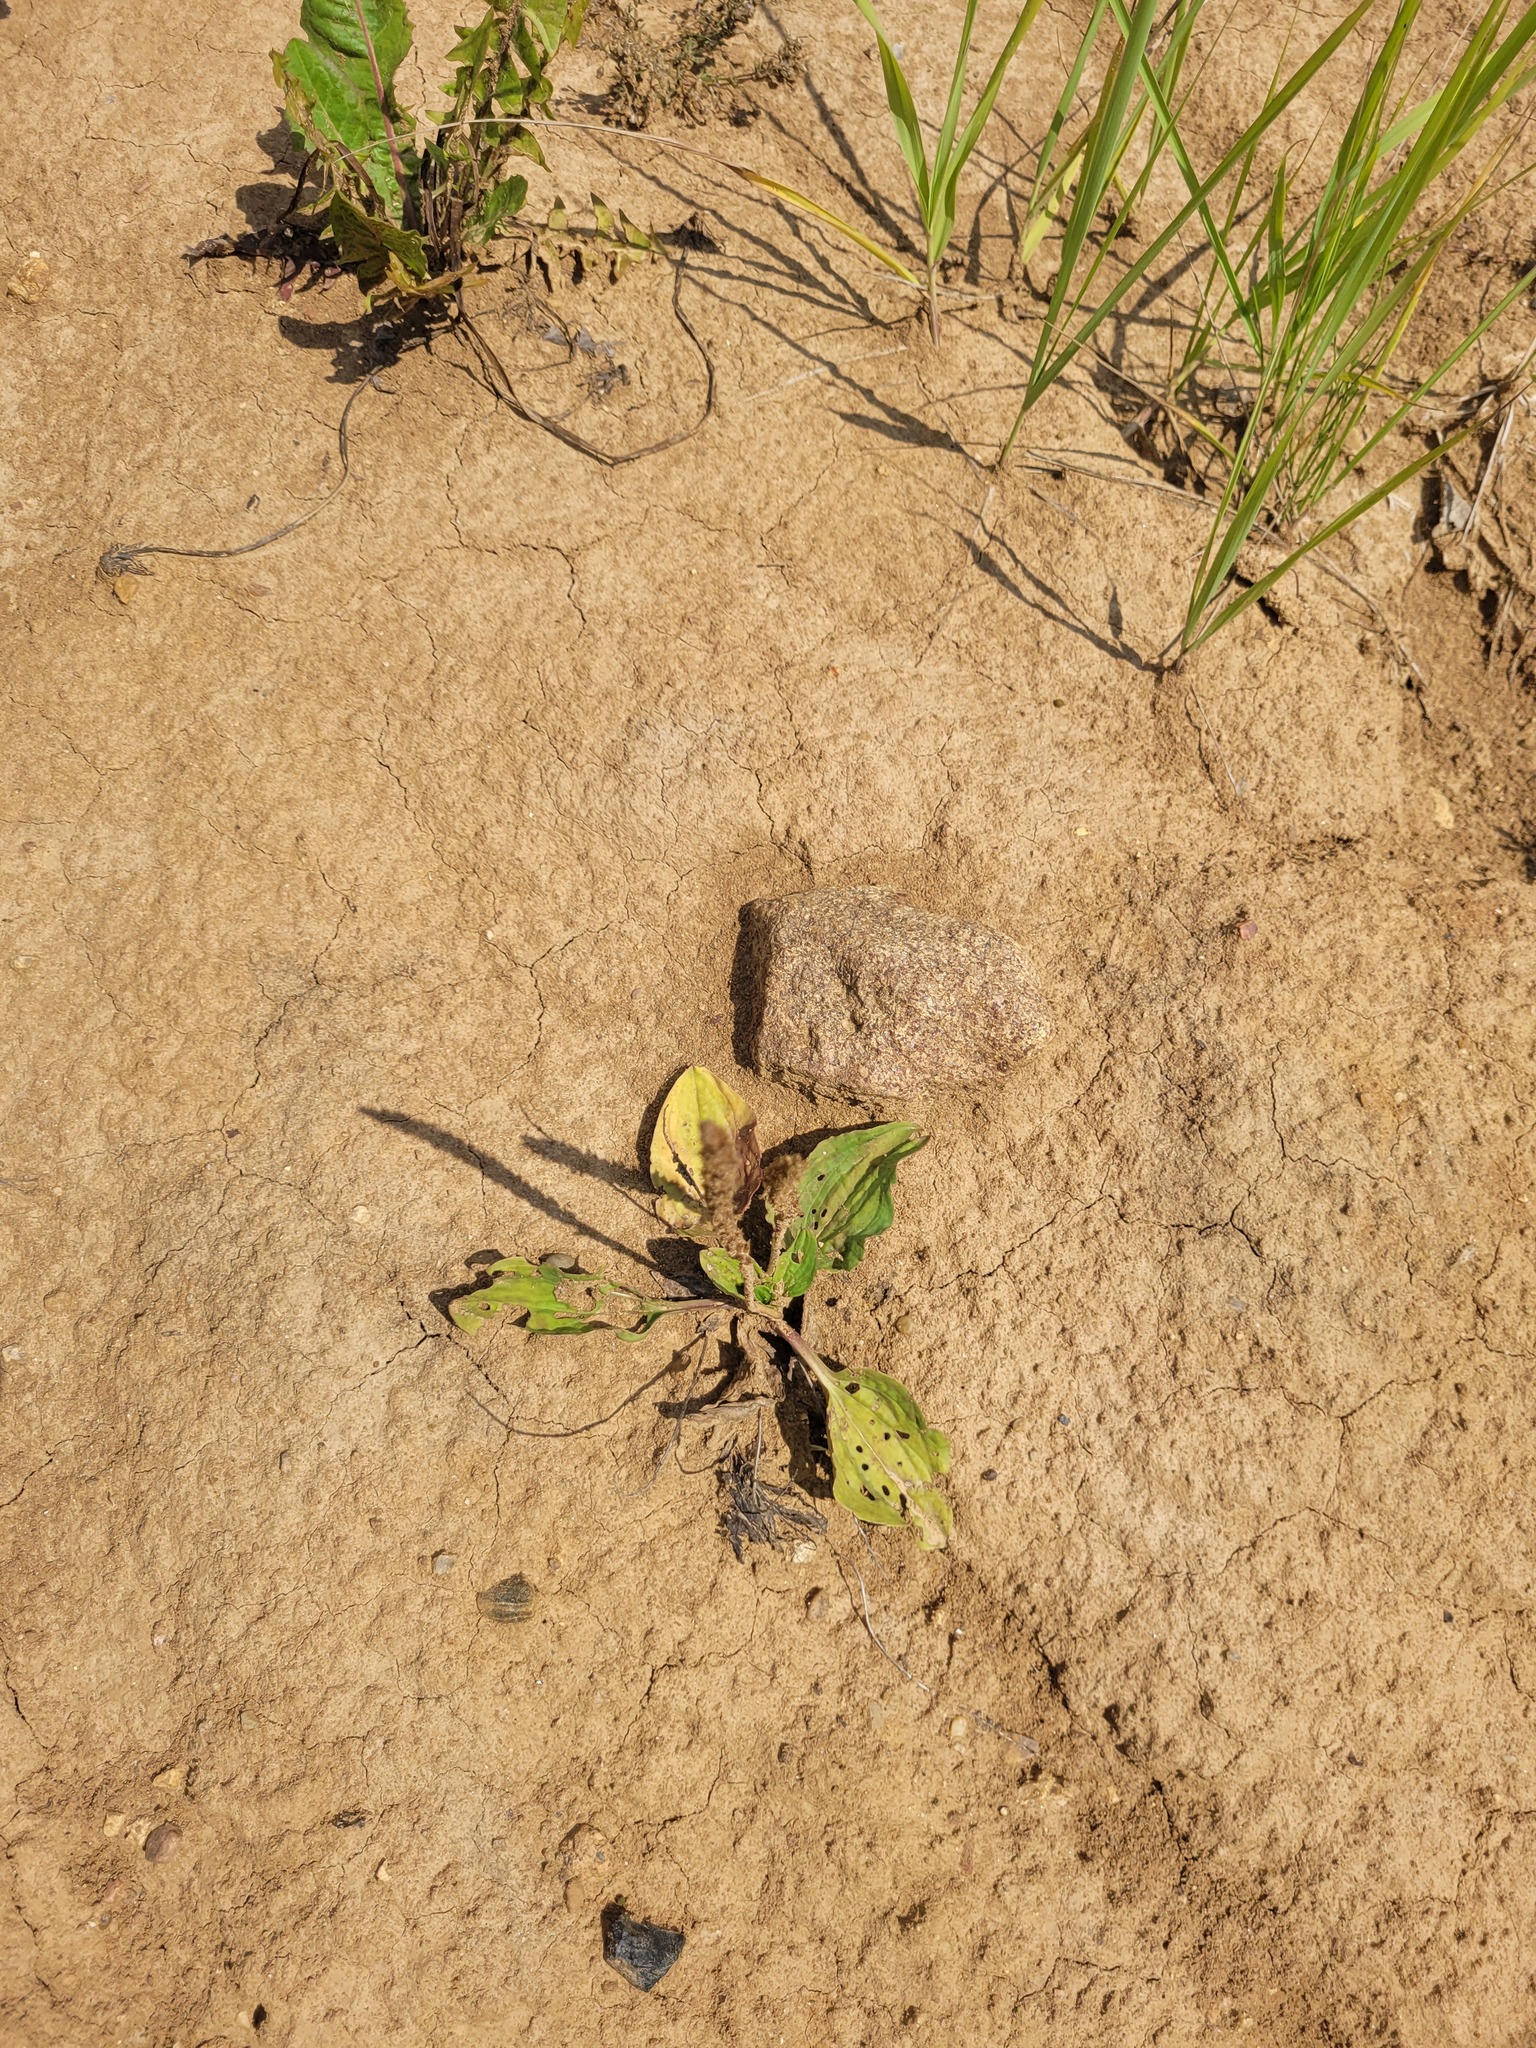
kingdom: Plantae
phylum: Tracheophyta
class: Magnoliopsida
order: Lamiales
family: Plantaginaceae
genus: Plantago
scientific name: Plantago major
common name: Common plantain
